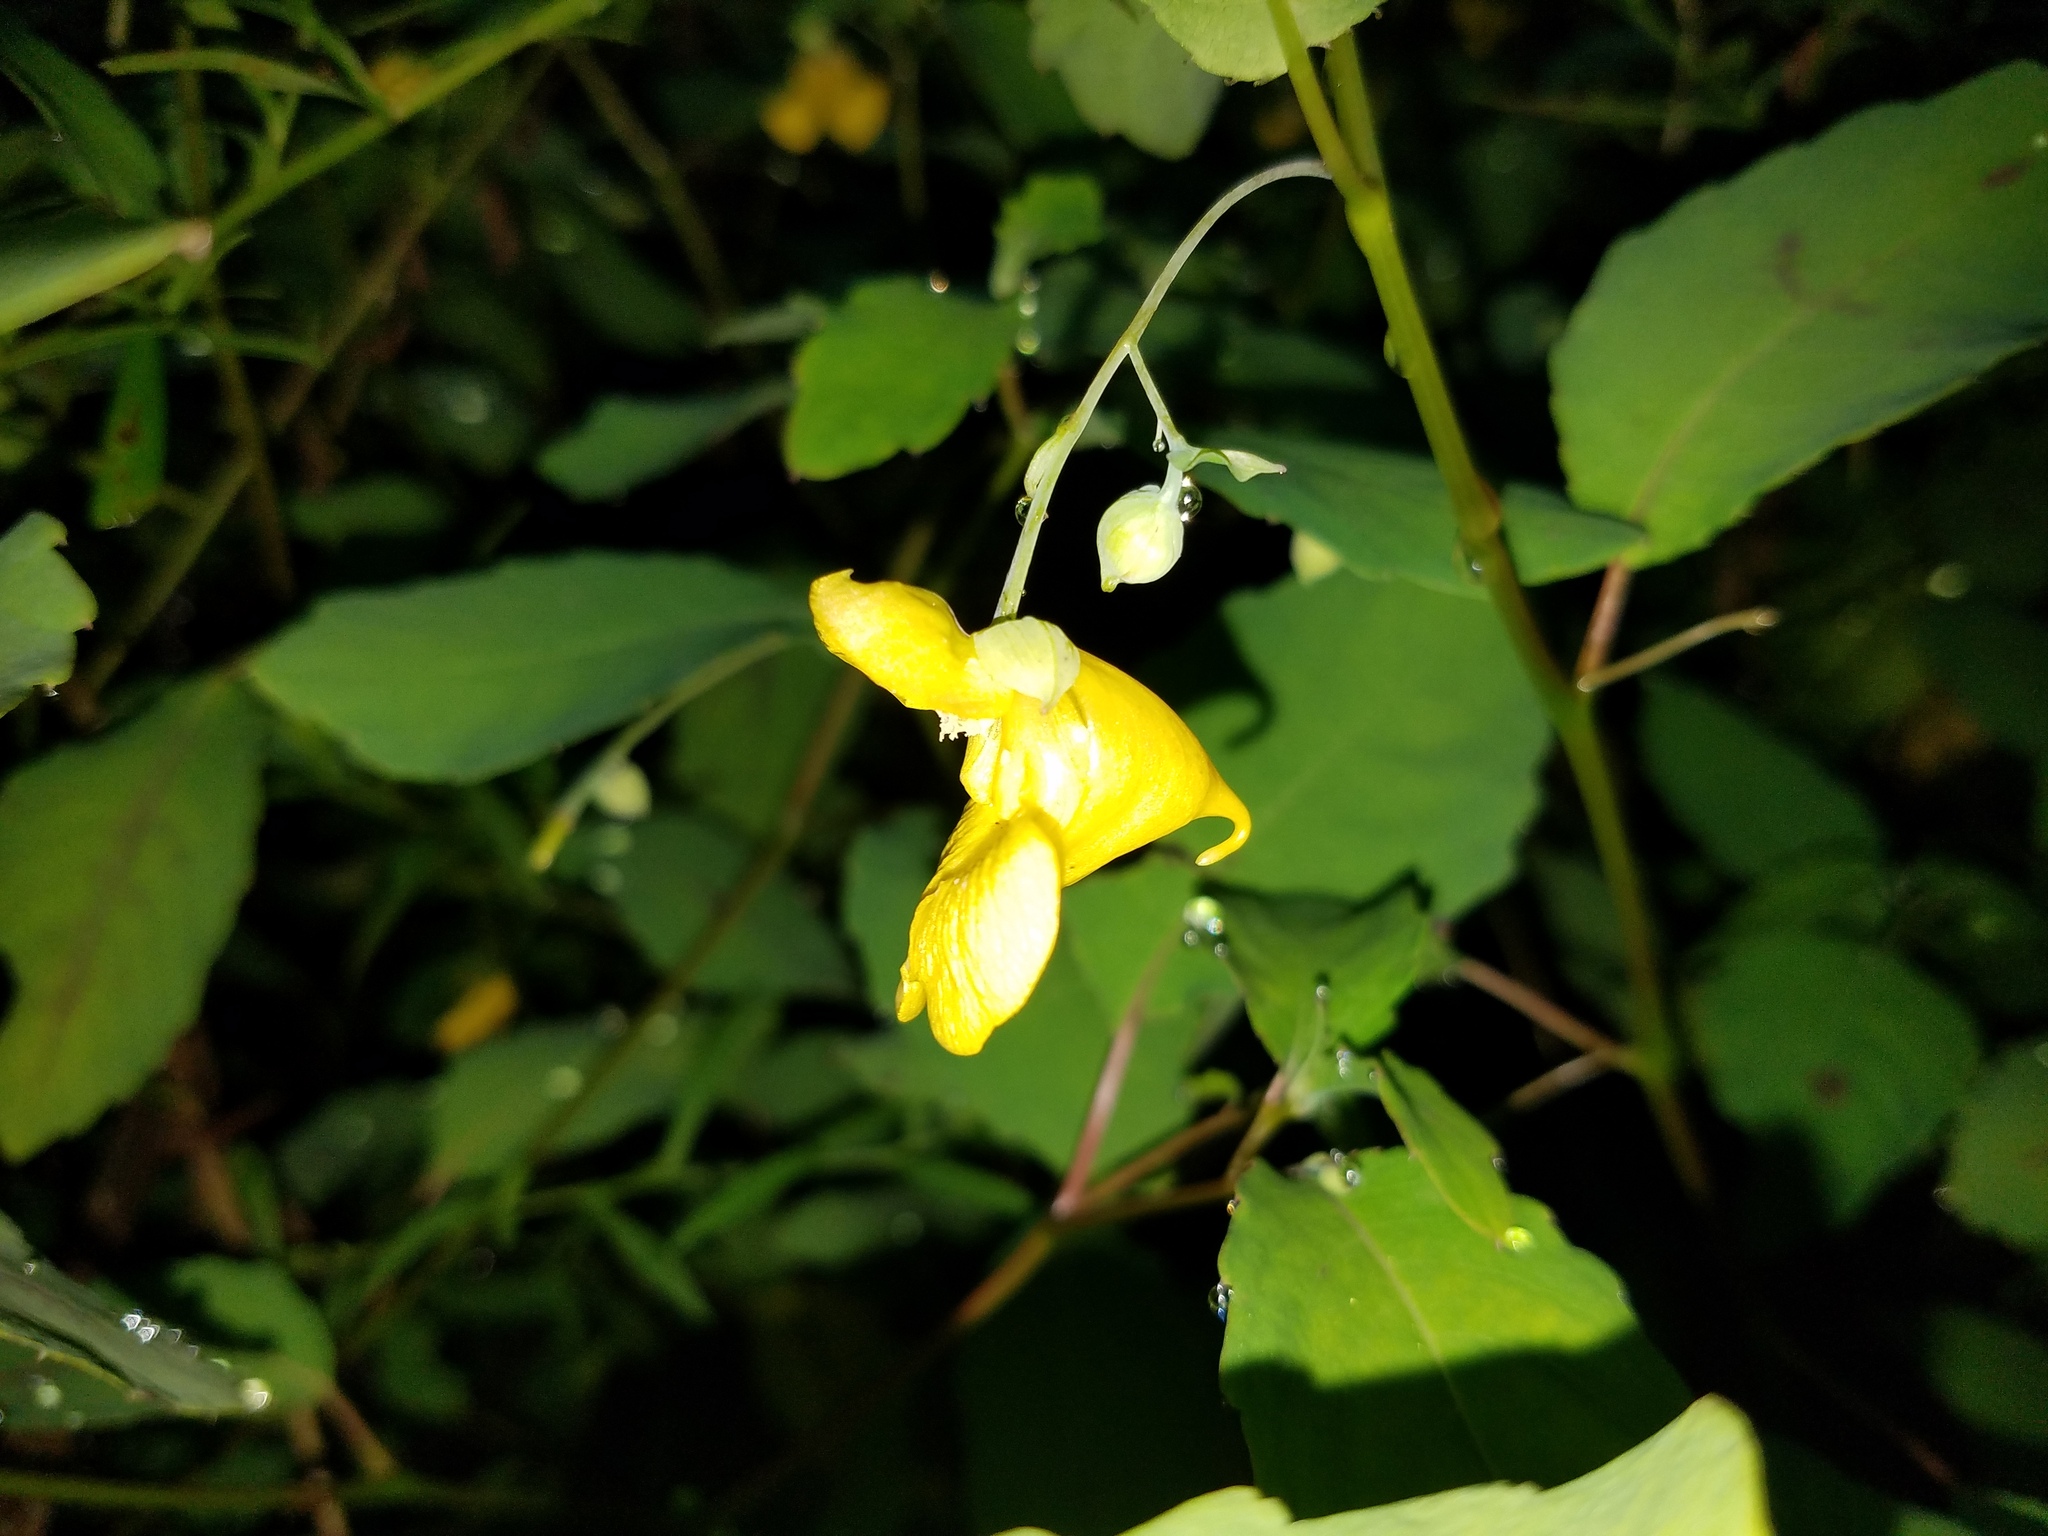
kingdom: Plantae
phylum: Tracheophyta
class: Magnoliopsida
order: Ericales
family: Balsaminaceae
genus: Impatiens
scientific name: Impatiens pallida
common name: Pale snapweed
